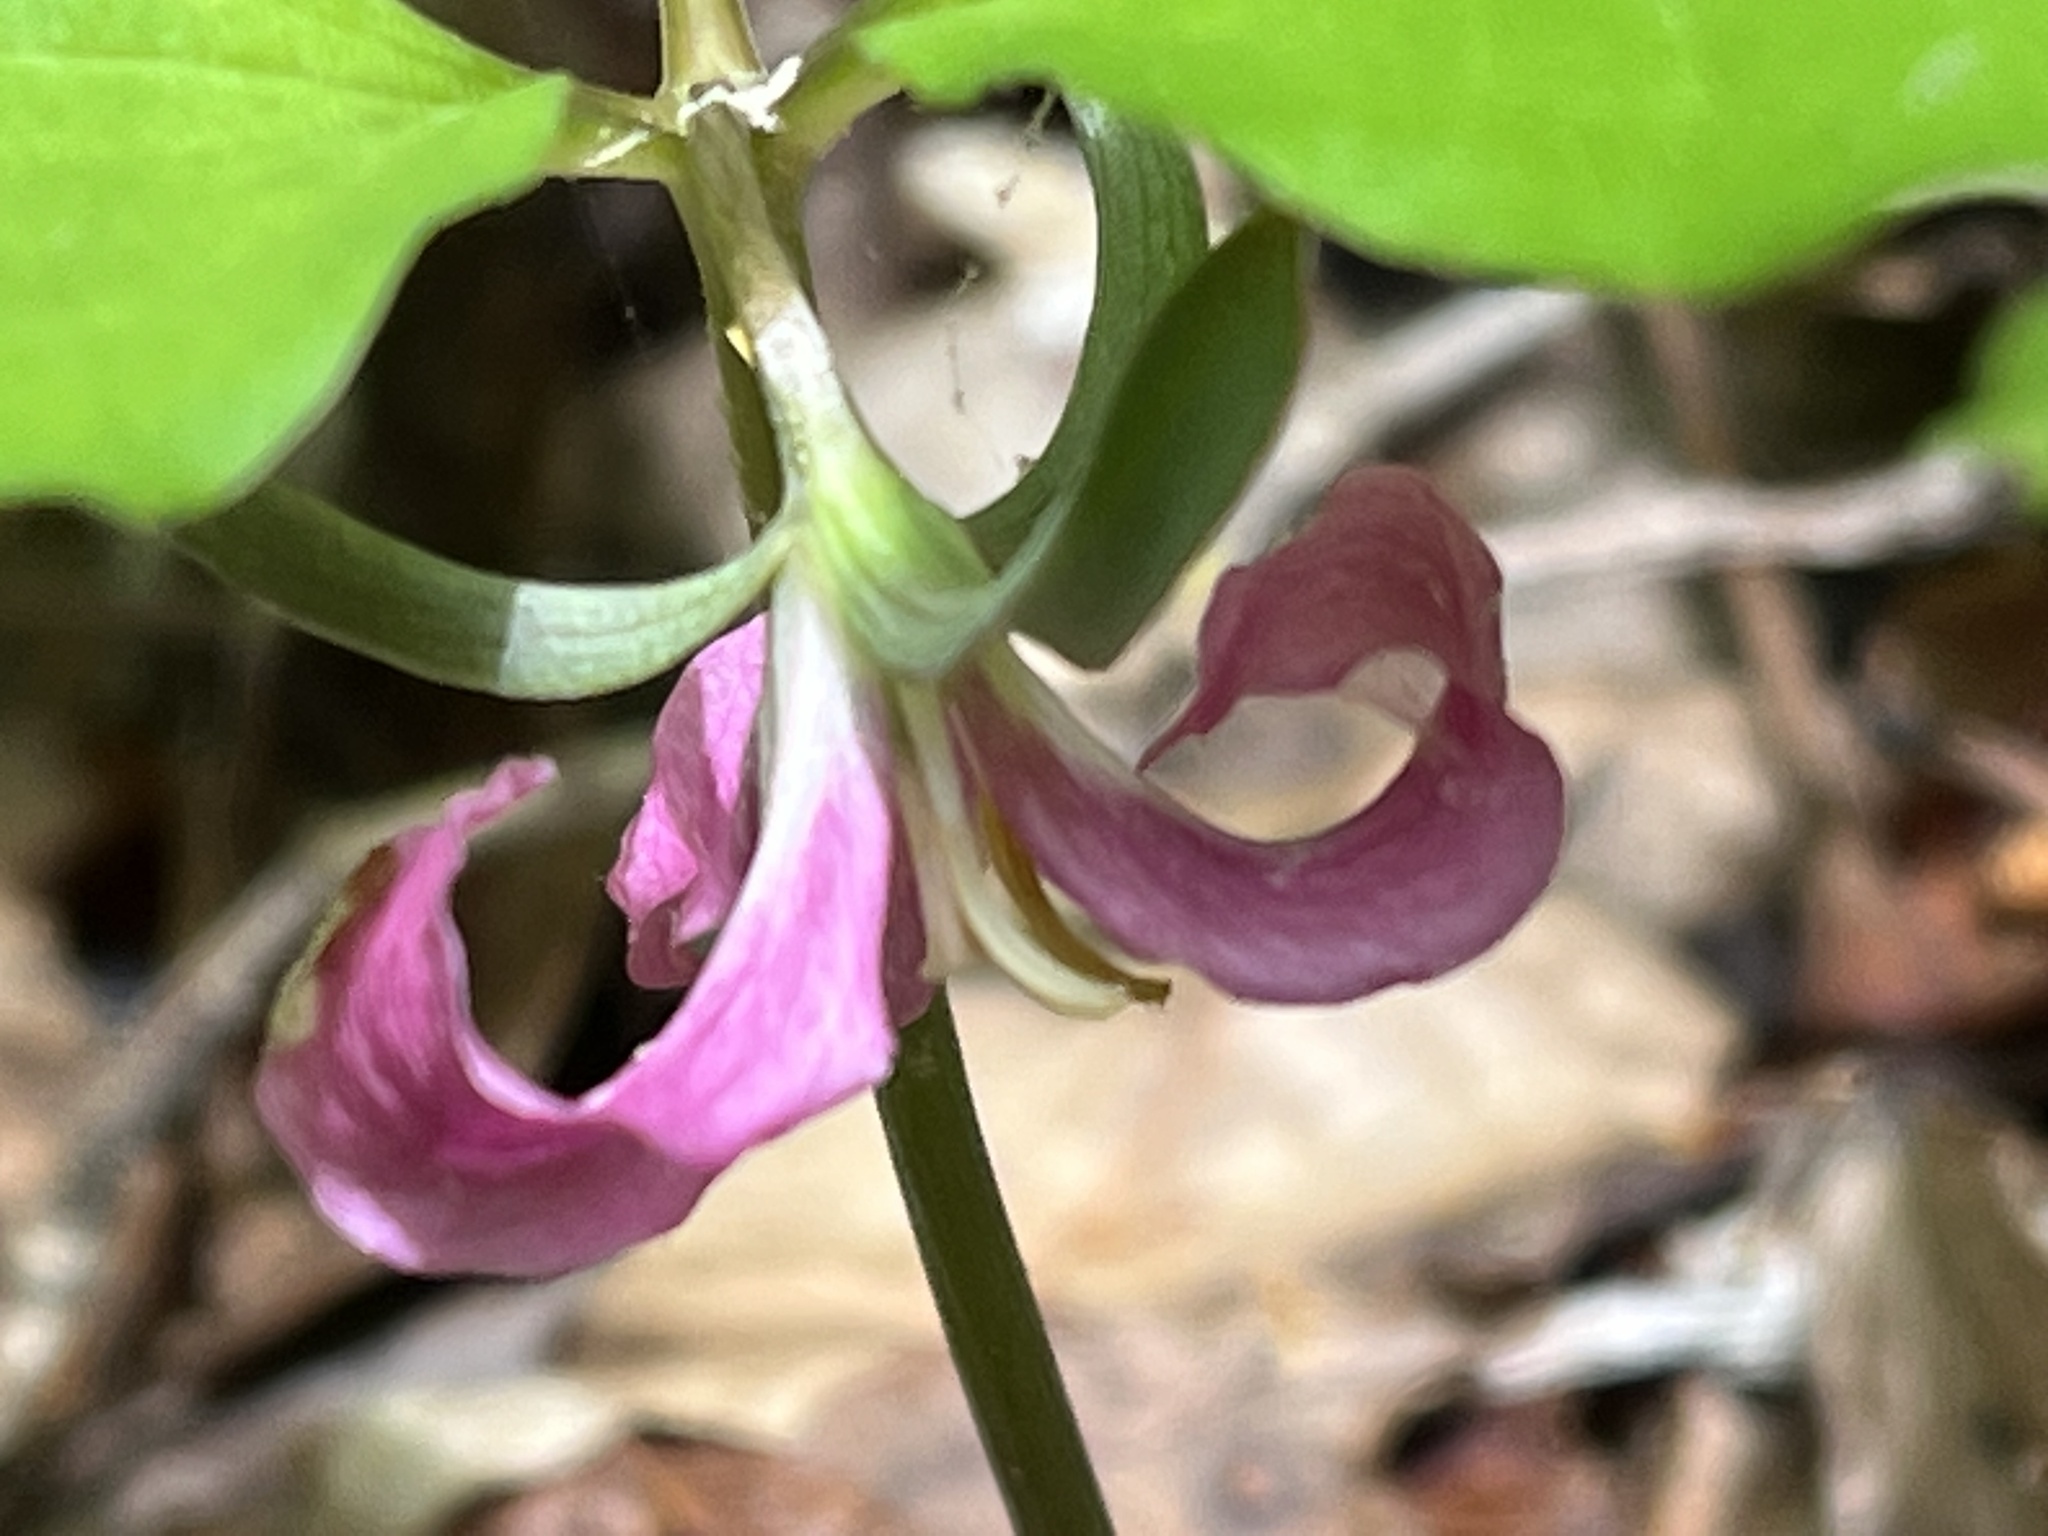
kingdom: Plantae
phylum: Tracheophyta
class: Liliopsida
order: Liliales
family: Melanthiaceae
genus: Trillium
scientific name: Trillium catesbaei
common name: Bashful trillium
